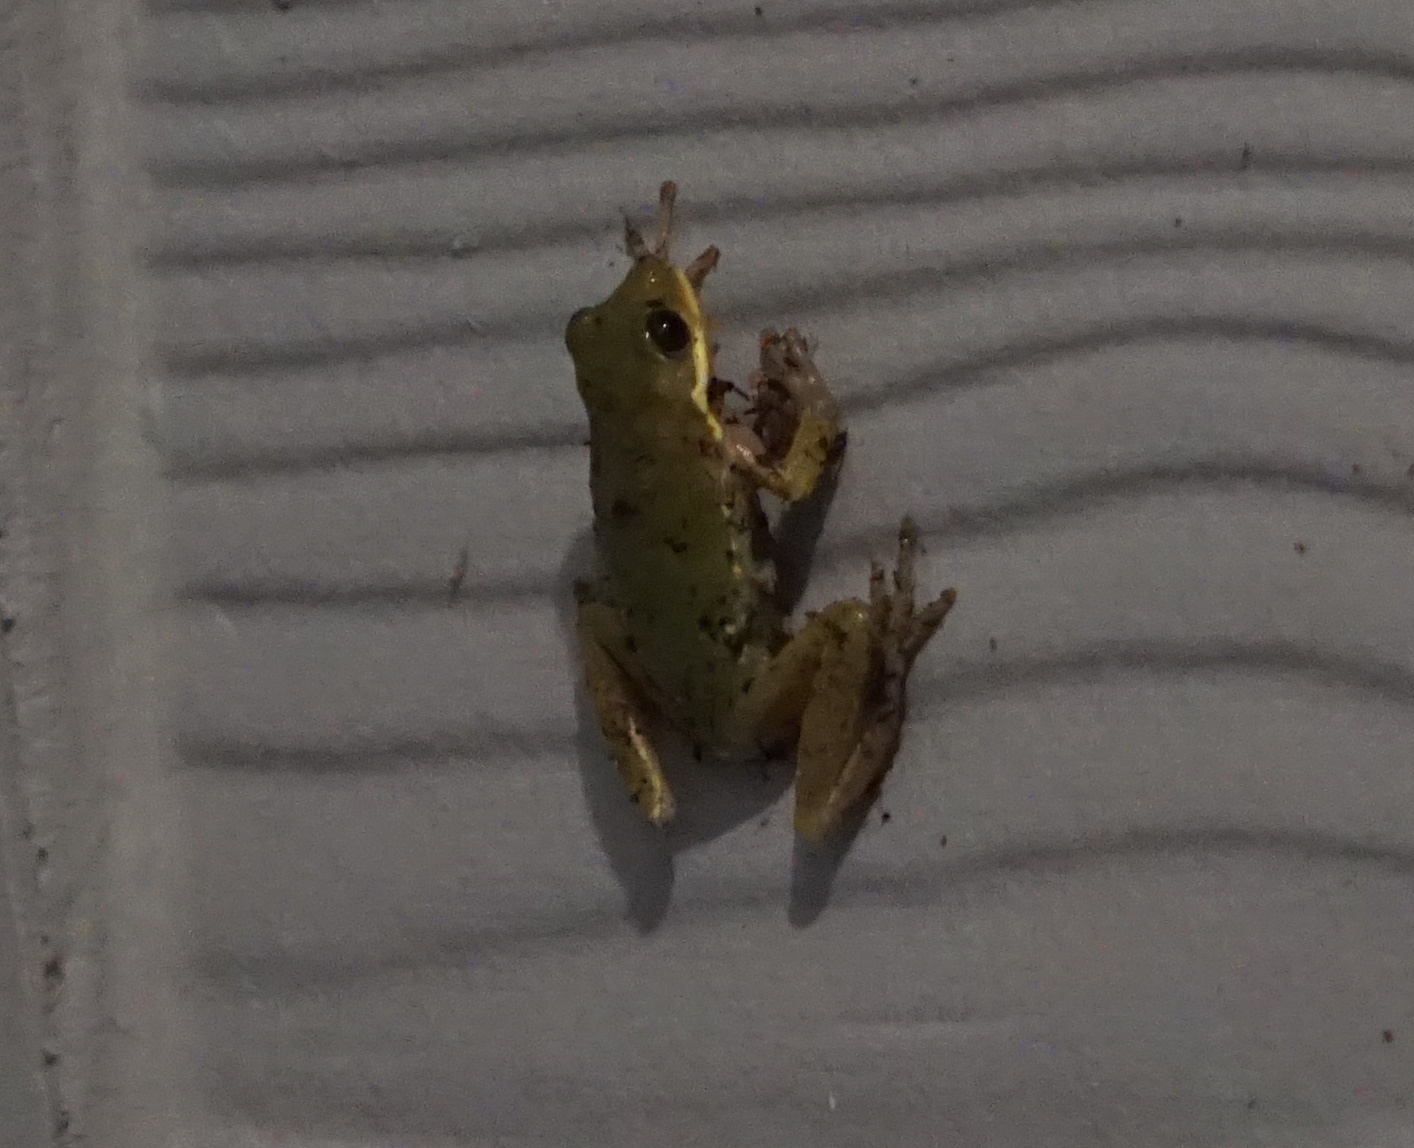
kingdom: Animalia
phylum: Chordata
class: Amphibia
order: Anura
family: Hylidae
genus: Dryophytes
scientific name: Dryophytes squirellus
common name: Squirrel treefrog
